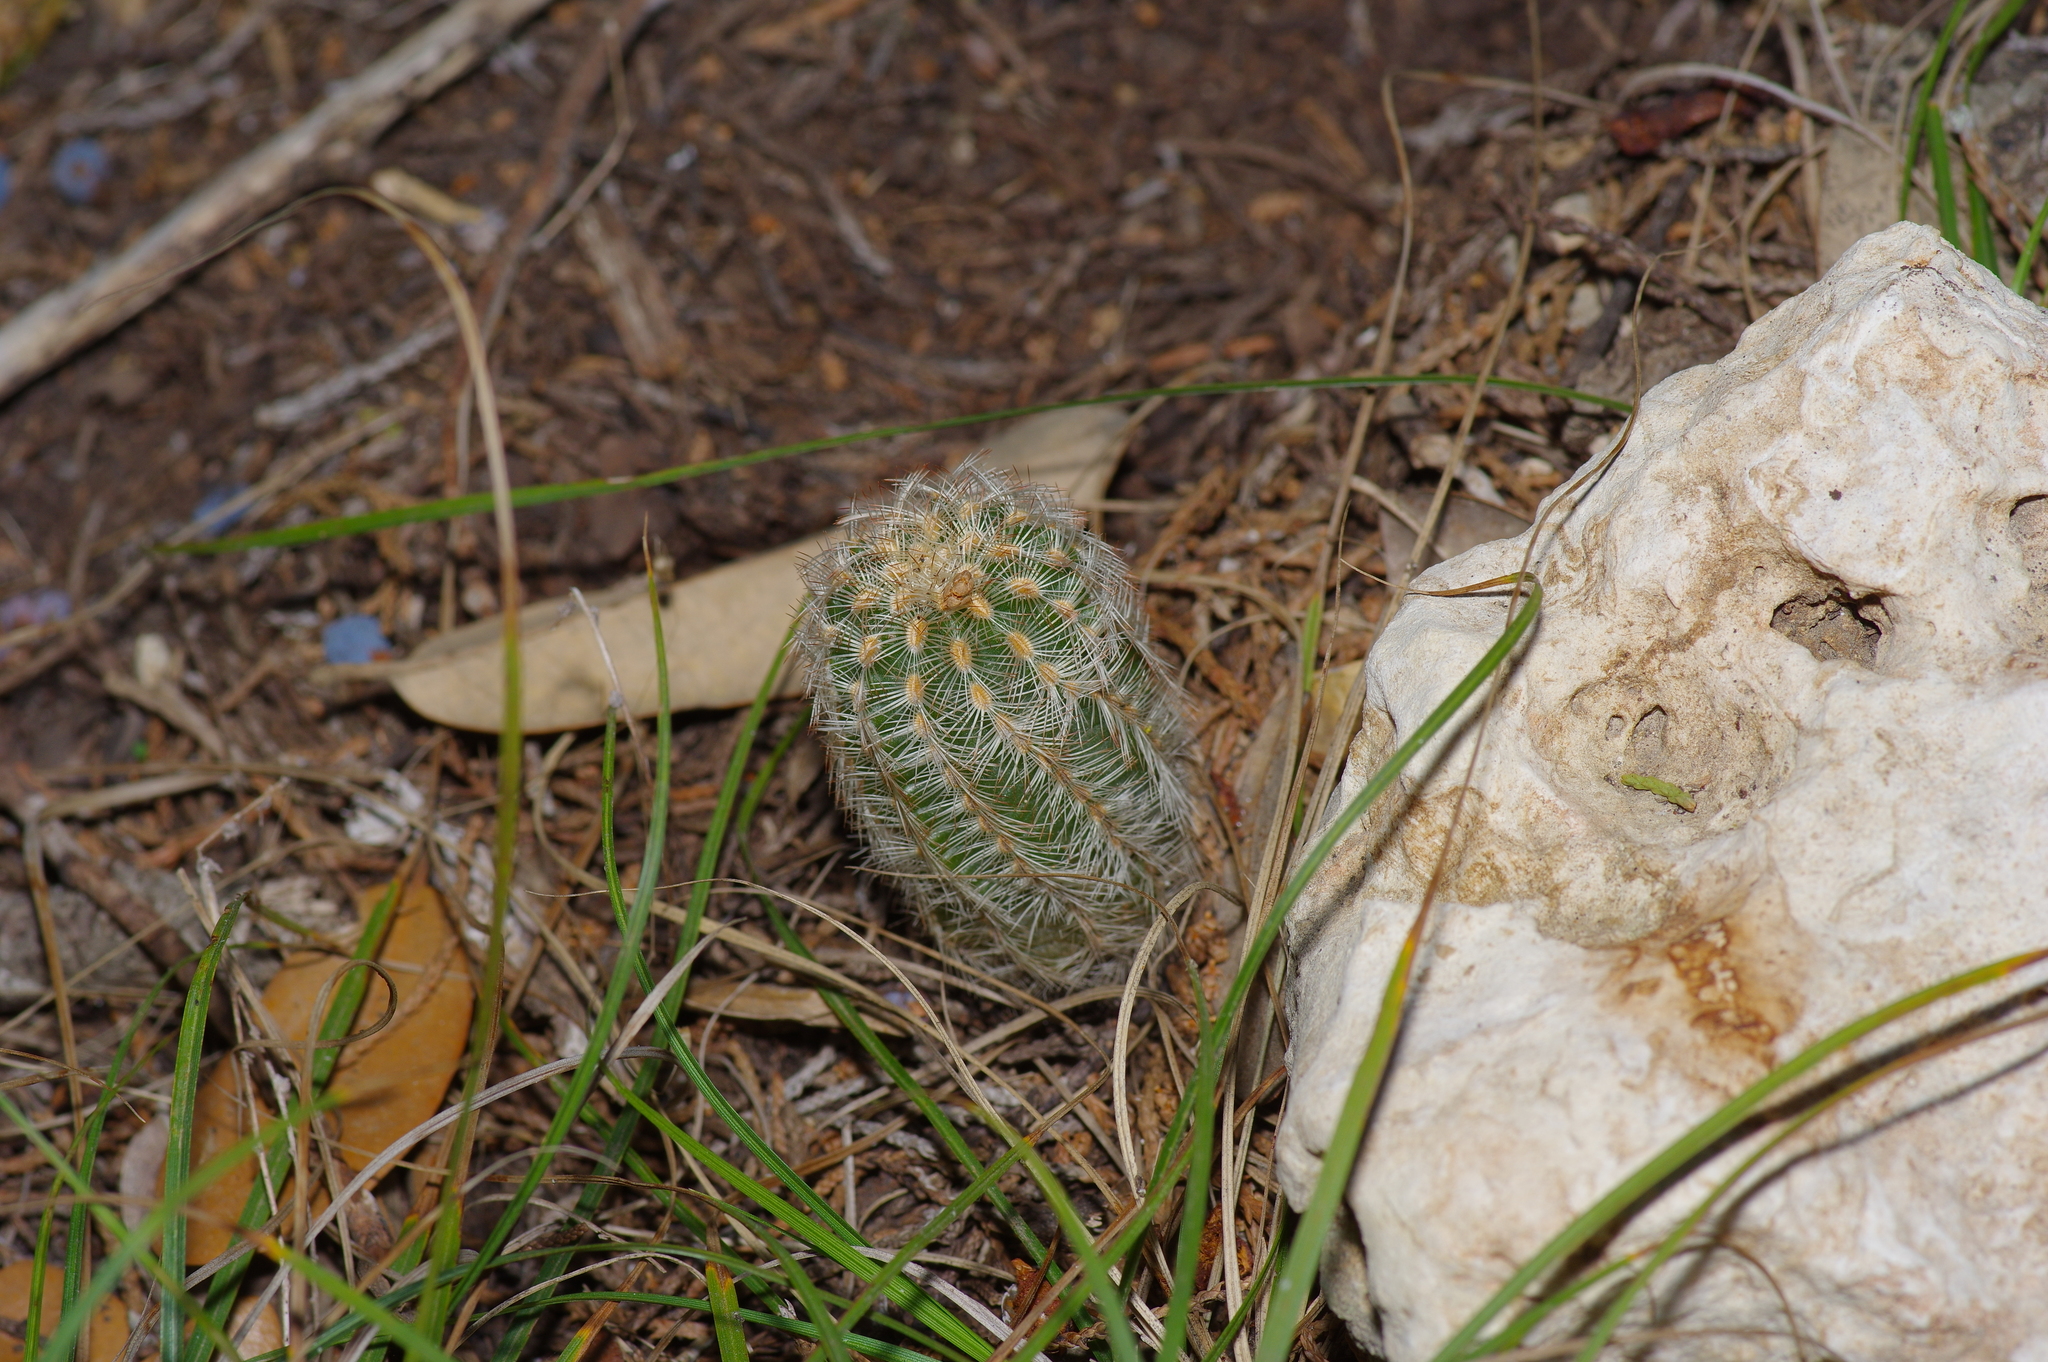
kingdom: Plantae
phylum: Tracheophyta
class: Magnoliopsida
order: Caryophyllales
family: Cactaceae
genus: Echinocereus
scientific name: Echinocereus reichenbachii
